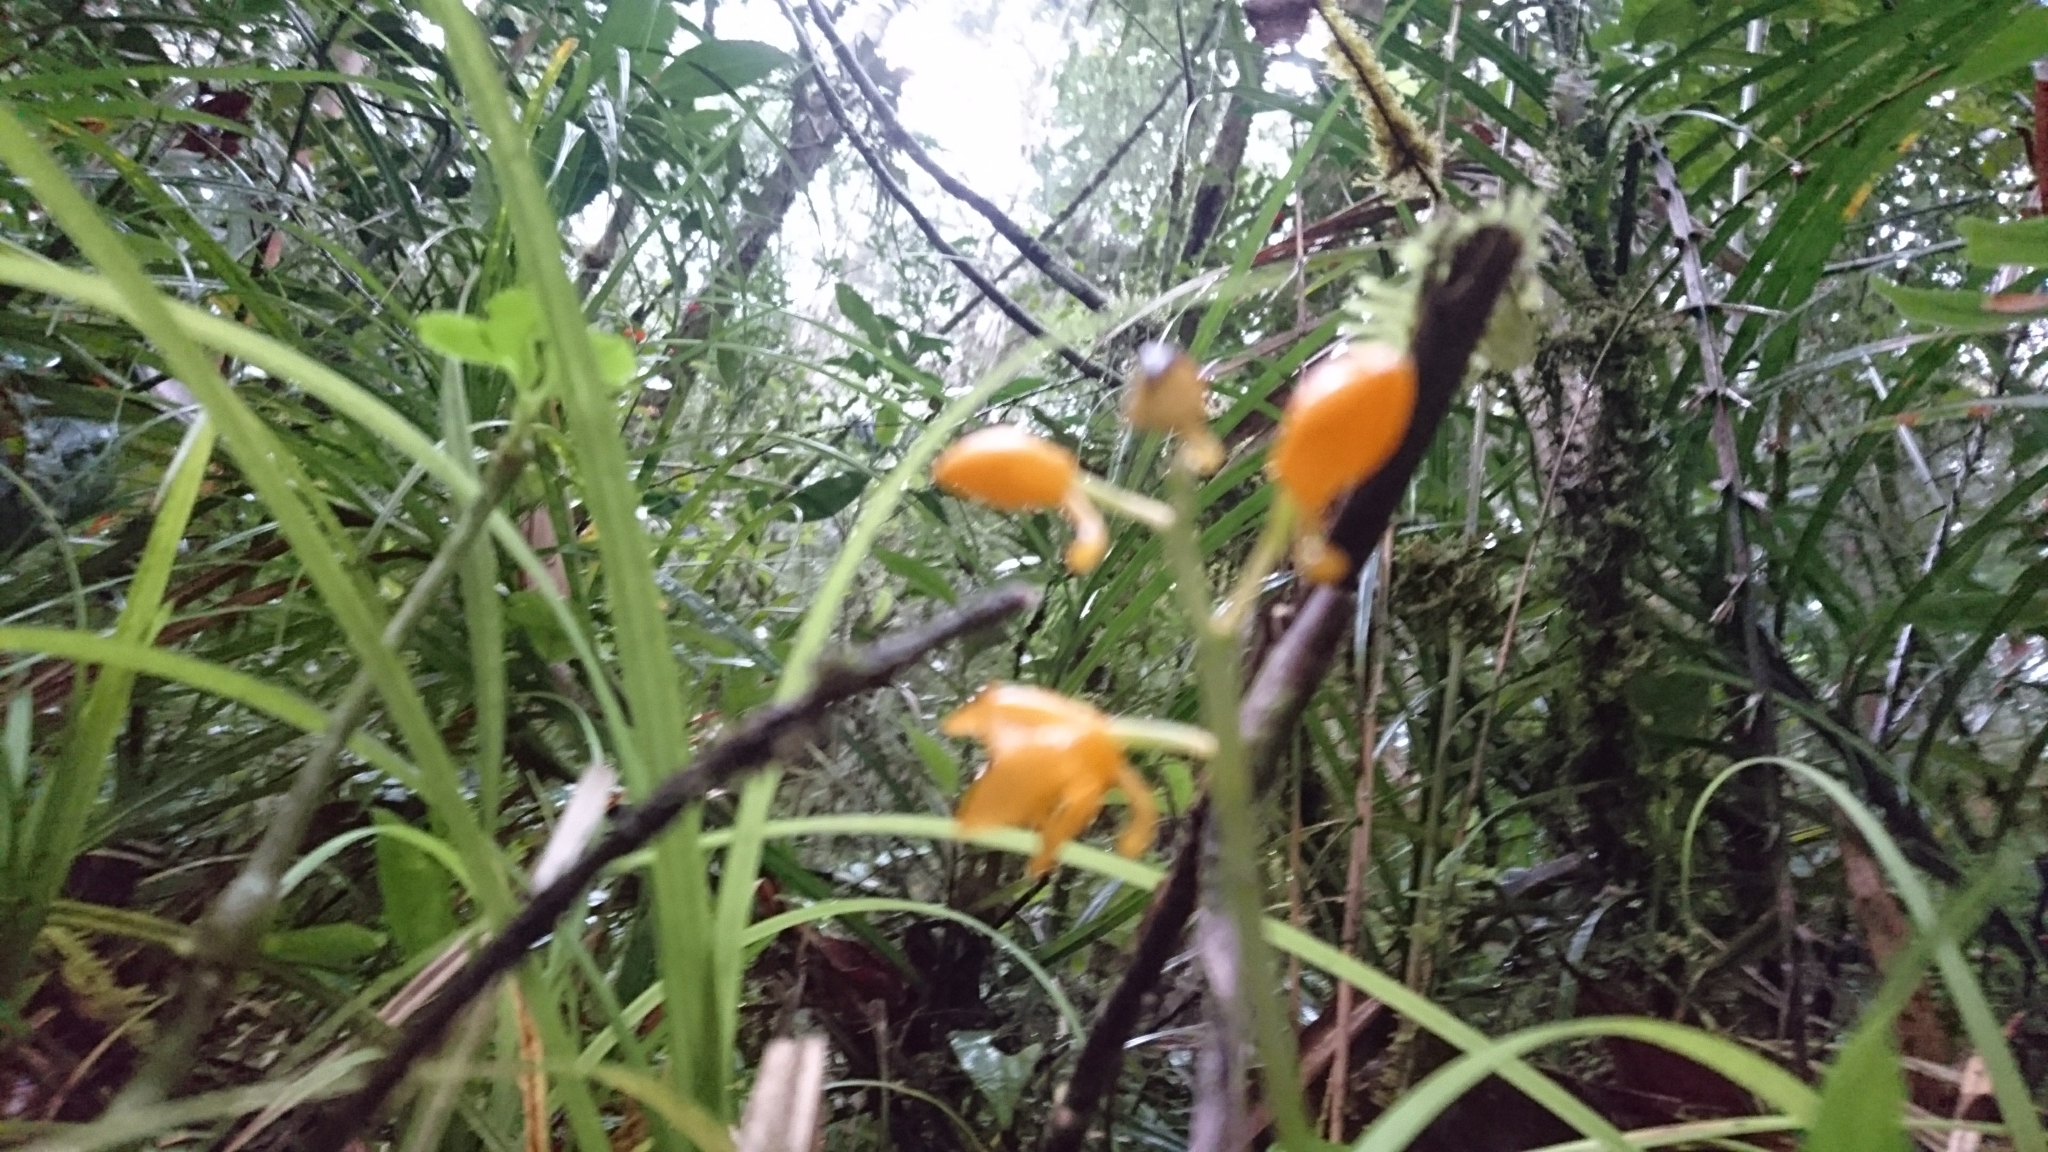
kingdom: Plantae
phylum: Tracheophyta
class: Liliopsida
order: Asparagales
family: Orchidaceae
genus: Calanthe
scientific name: Calanthe
